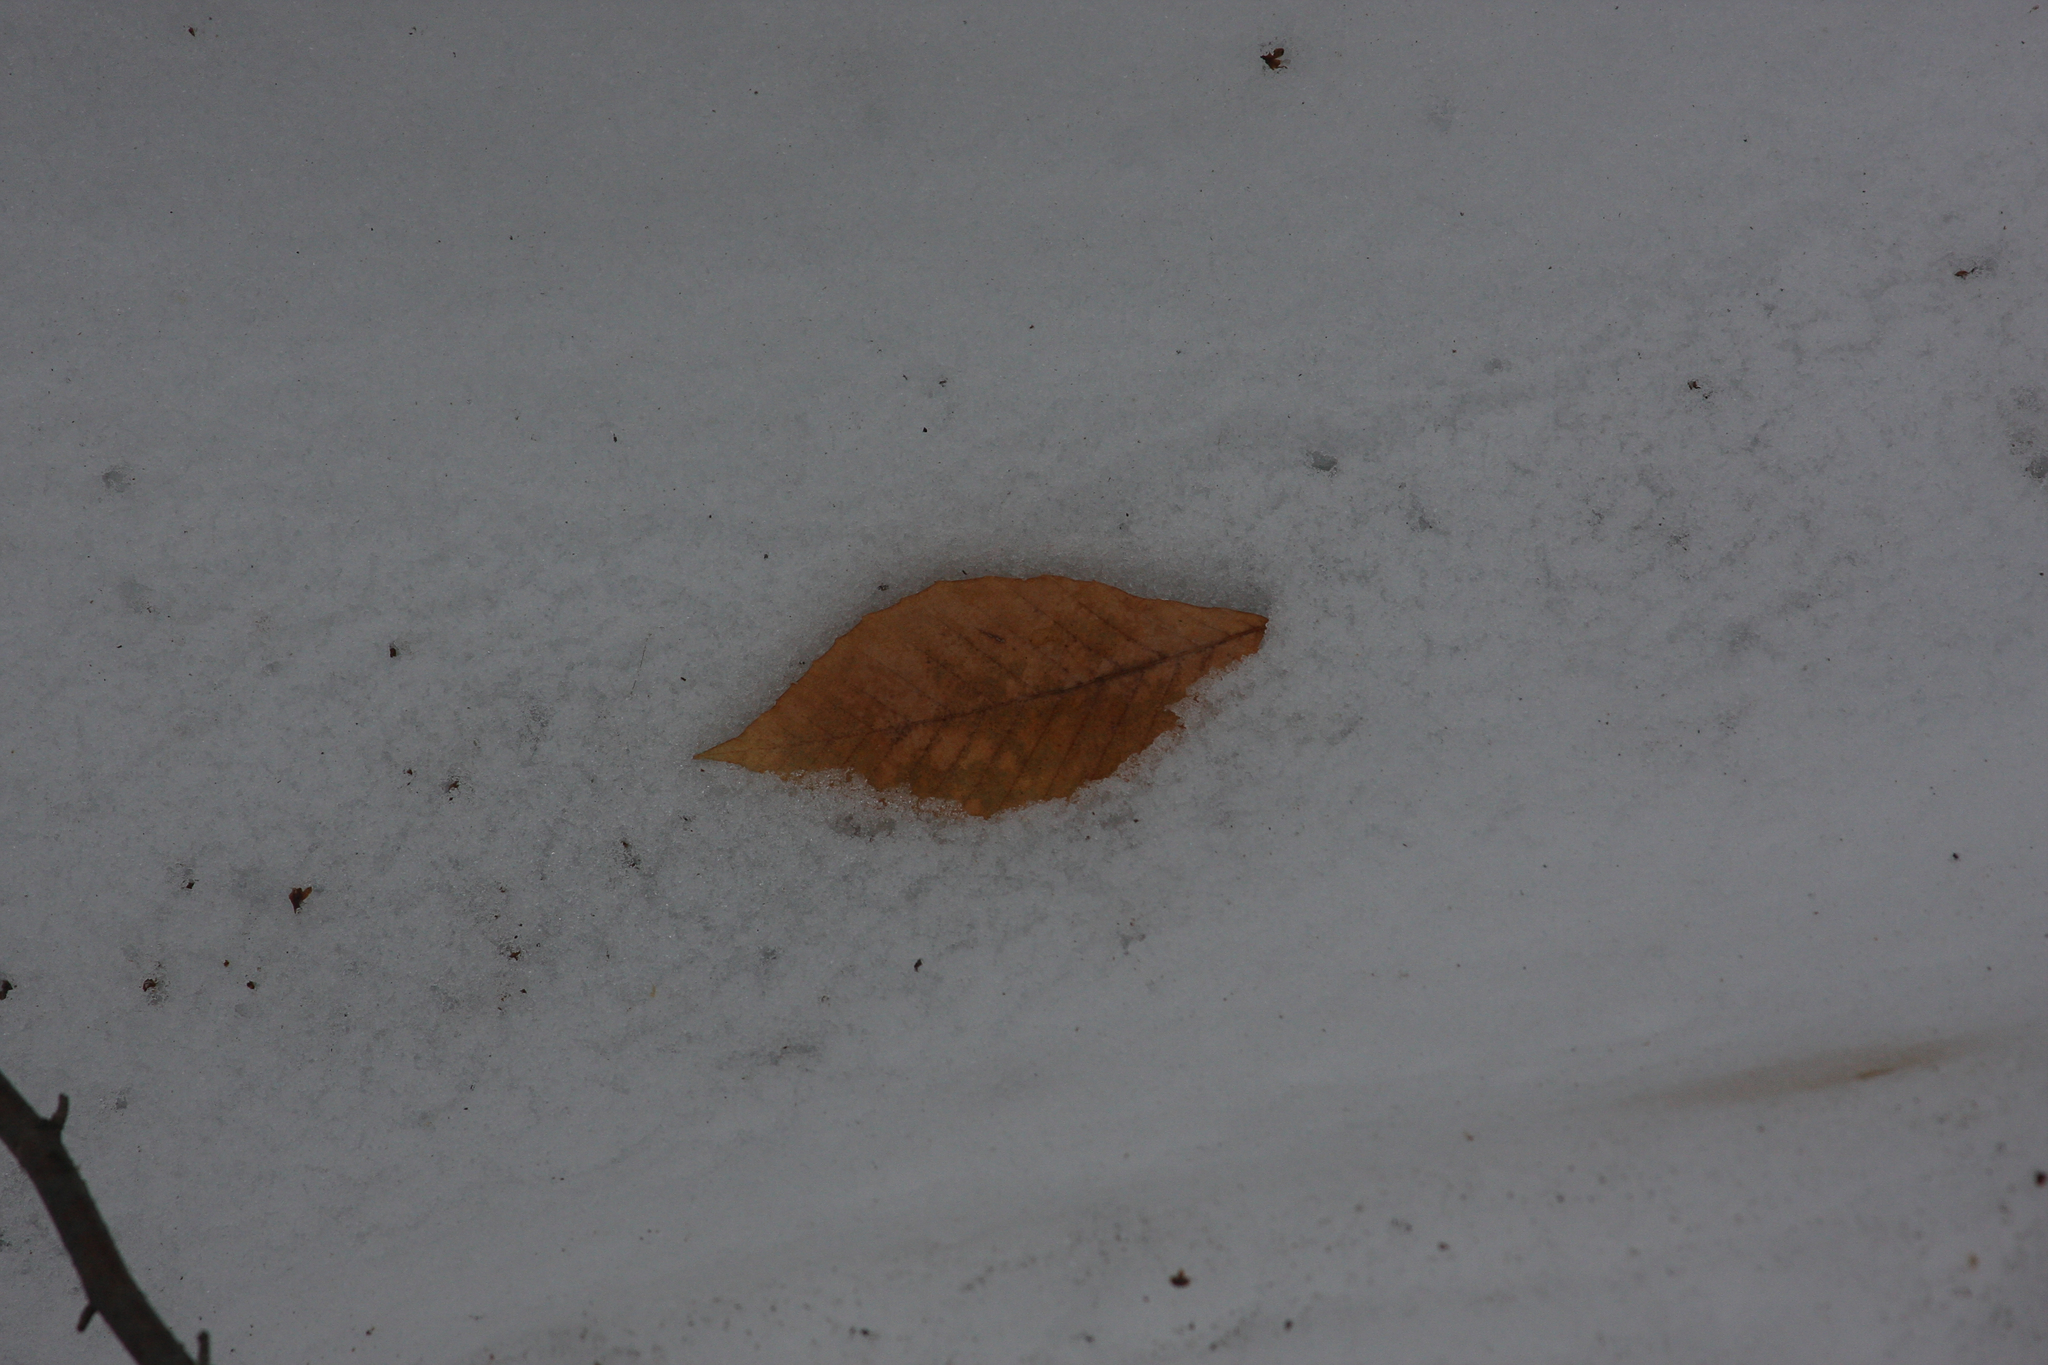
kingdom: Plantae
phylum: Tracheophyta
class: Magnoliopsida
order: Fagales
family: Fagaceae
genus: Fagus
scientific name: Fagus grandifolia
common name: American beech
